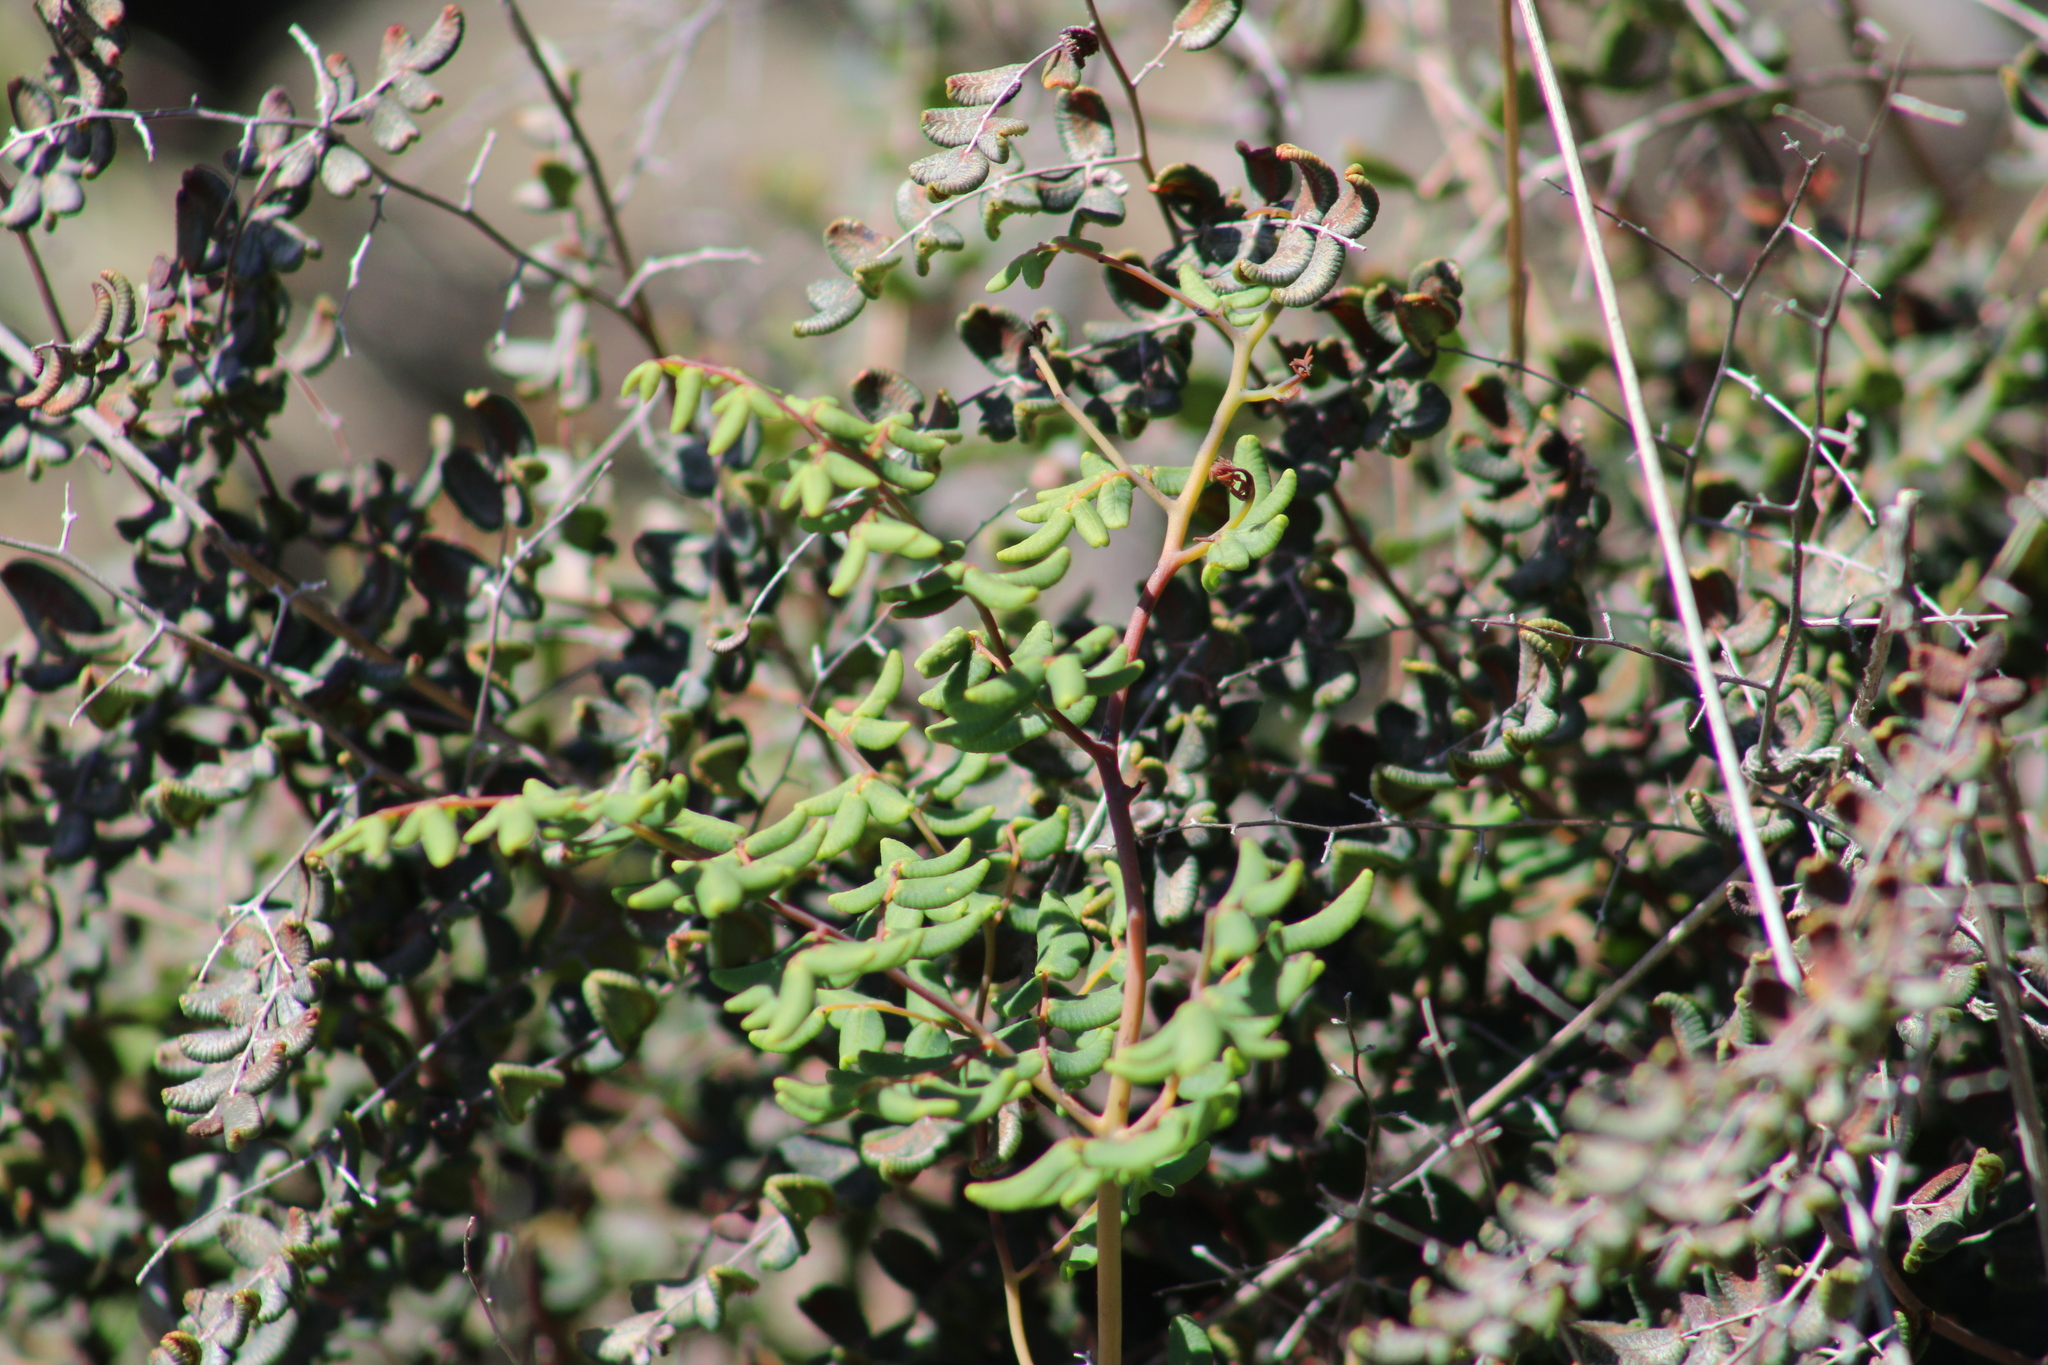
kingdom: Plantae
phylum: Tracheophyta
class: Polypodiopsida
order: Polypodiales
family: Pteridaceae
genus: Pellaea
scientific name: Pellaea andromedifolia
